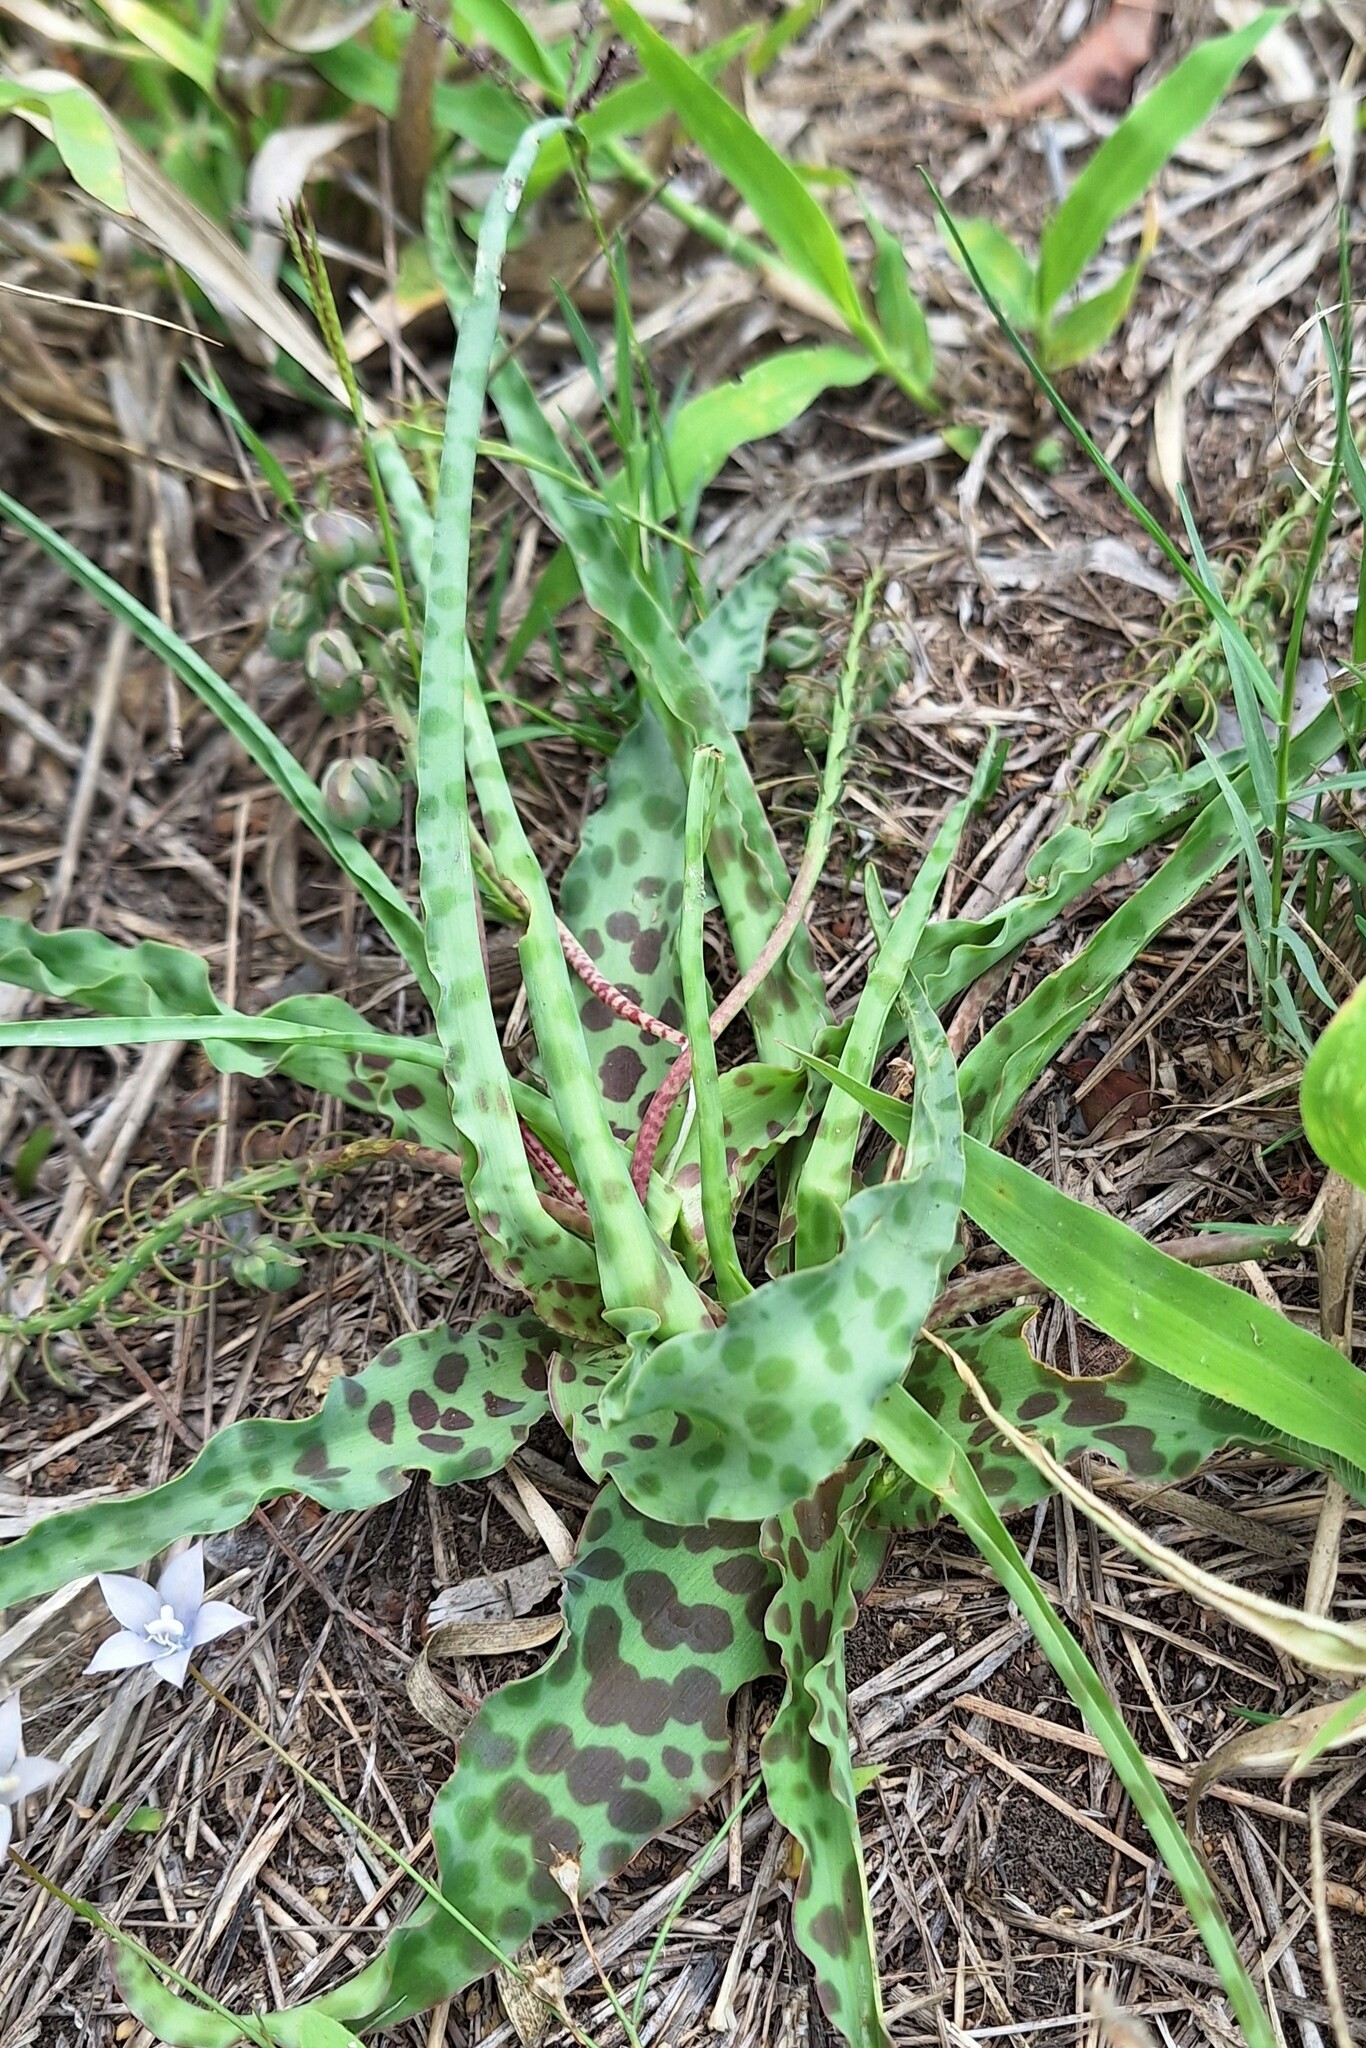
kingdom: Plantae
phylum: Tracheophyta
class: Liliopsida
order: Asparagales
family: Asparagaceae
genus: Ledebouria
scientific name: Ledebouria inquinata
